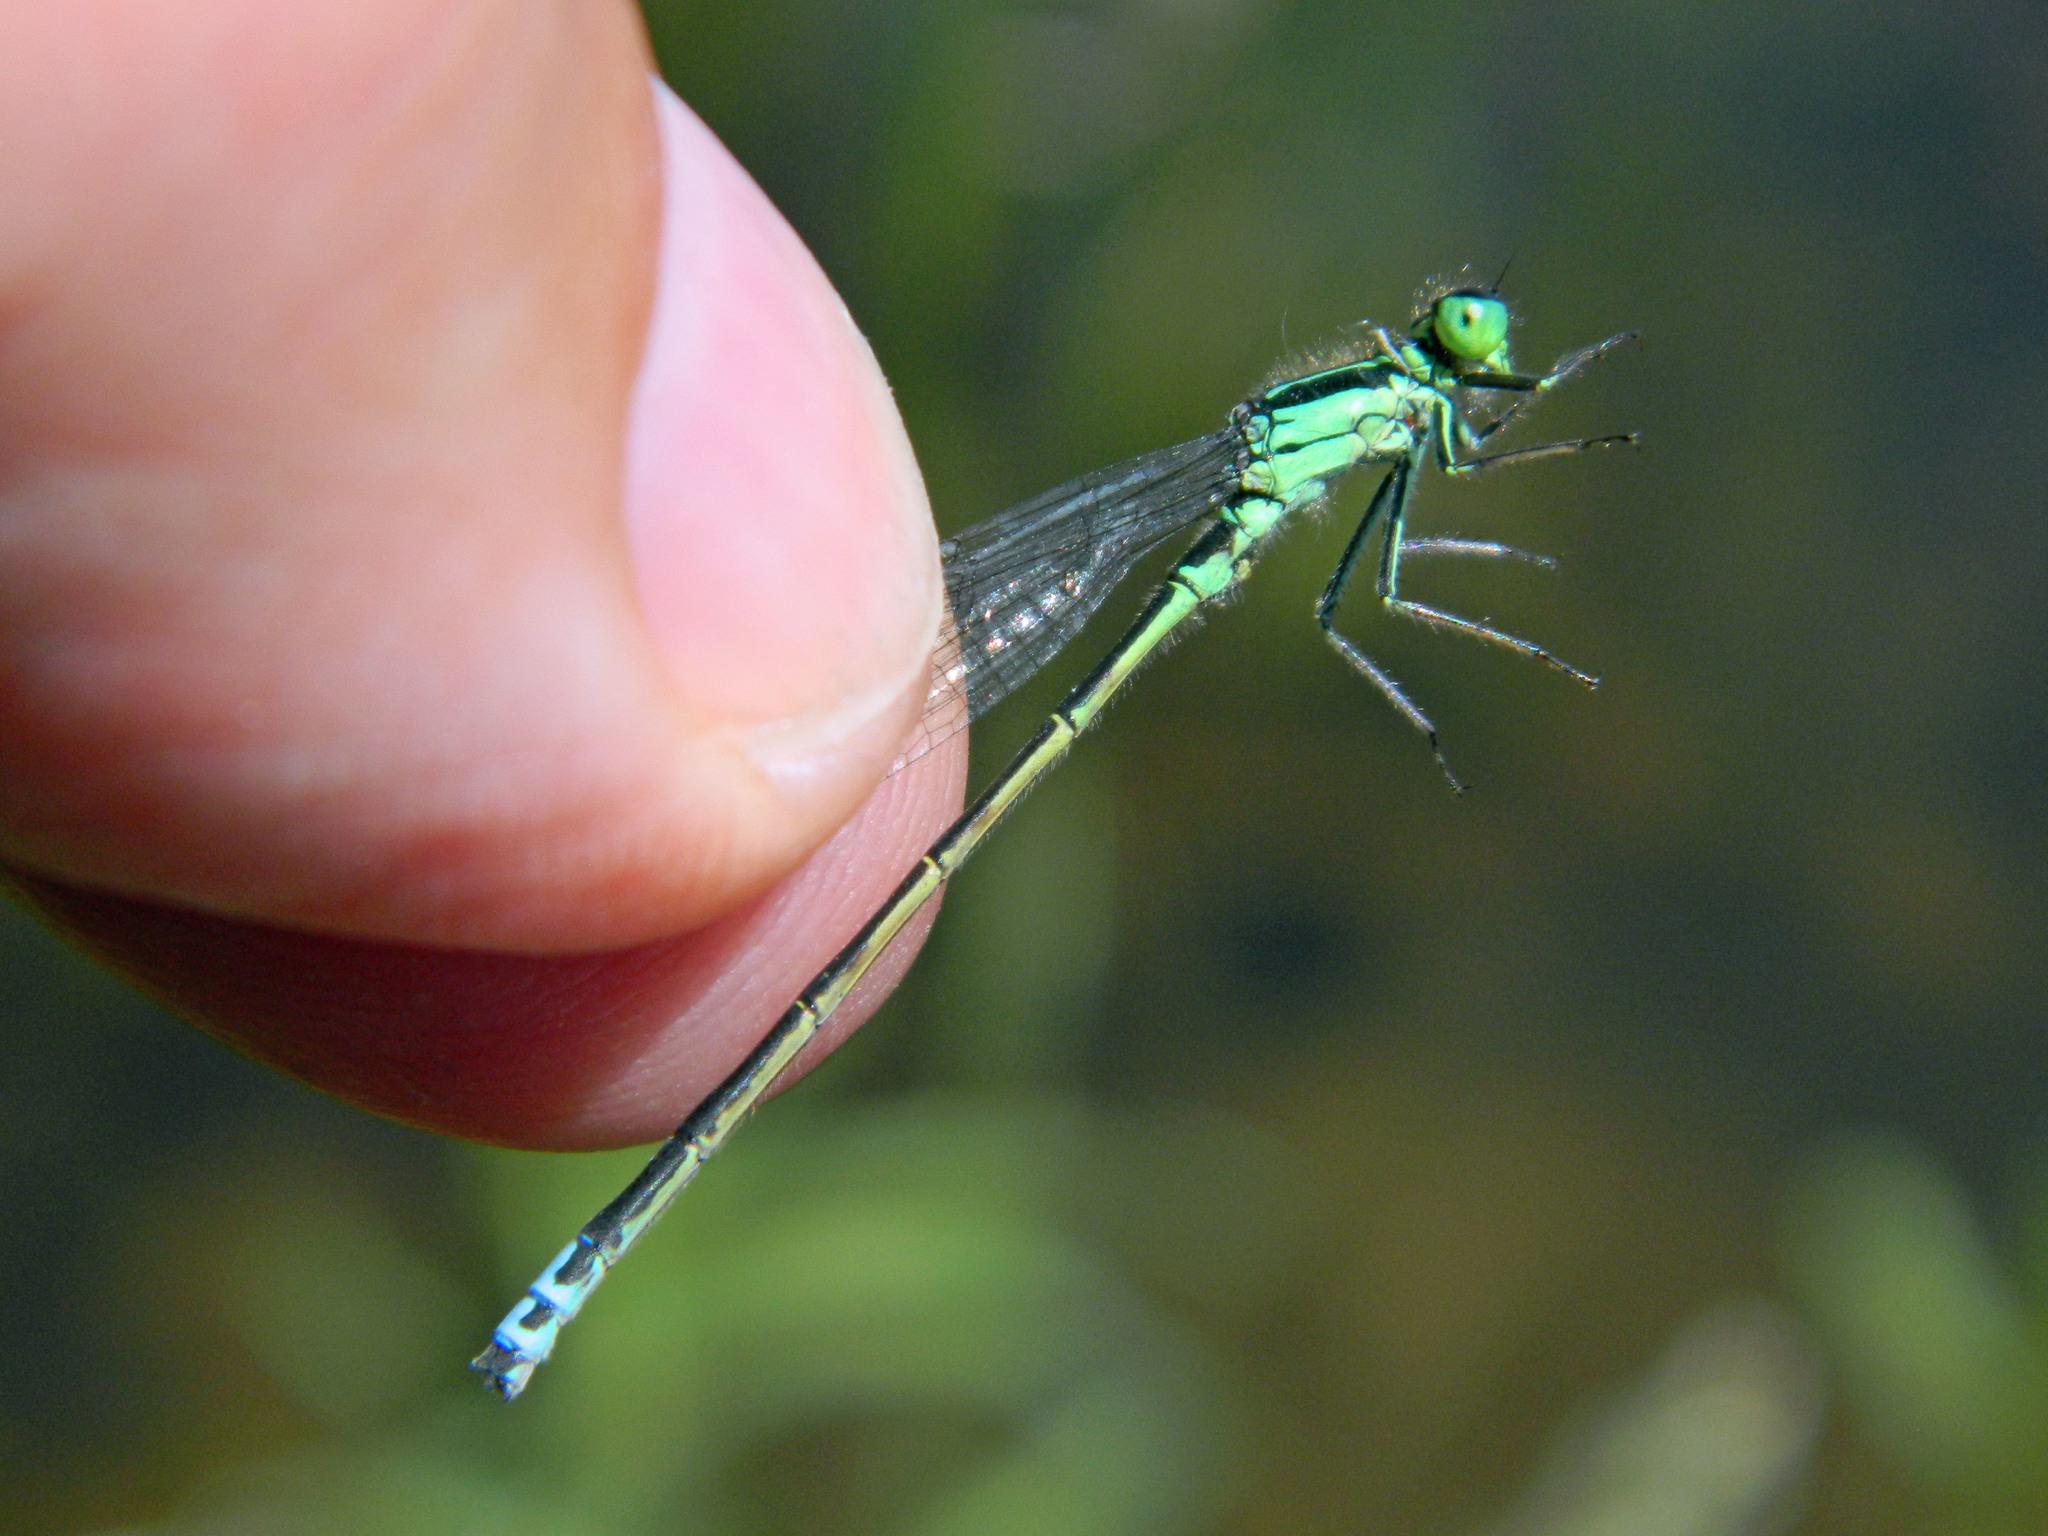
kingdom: Animalia
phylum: Arthropoda
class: Insecta
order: Odonata
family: Coenagrionidae
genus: Ischnura
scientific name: Ischnura verticalis
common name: Eastern forktail
